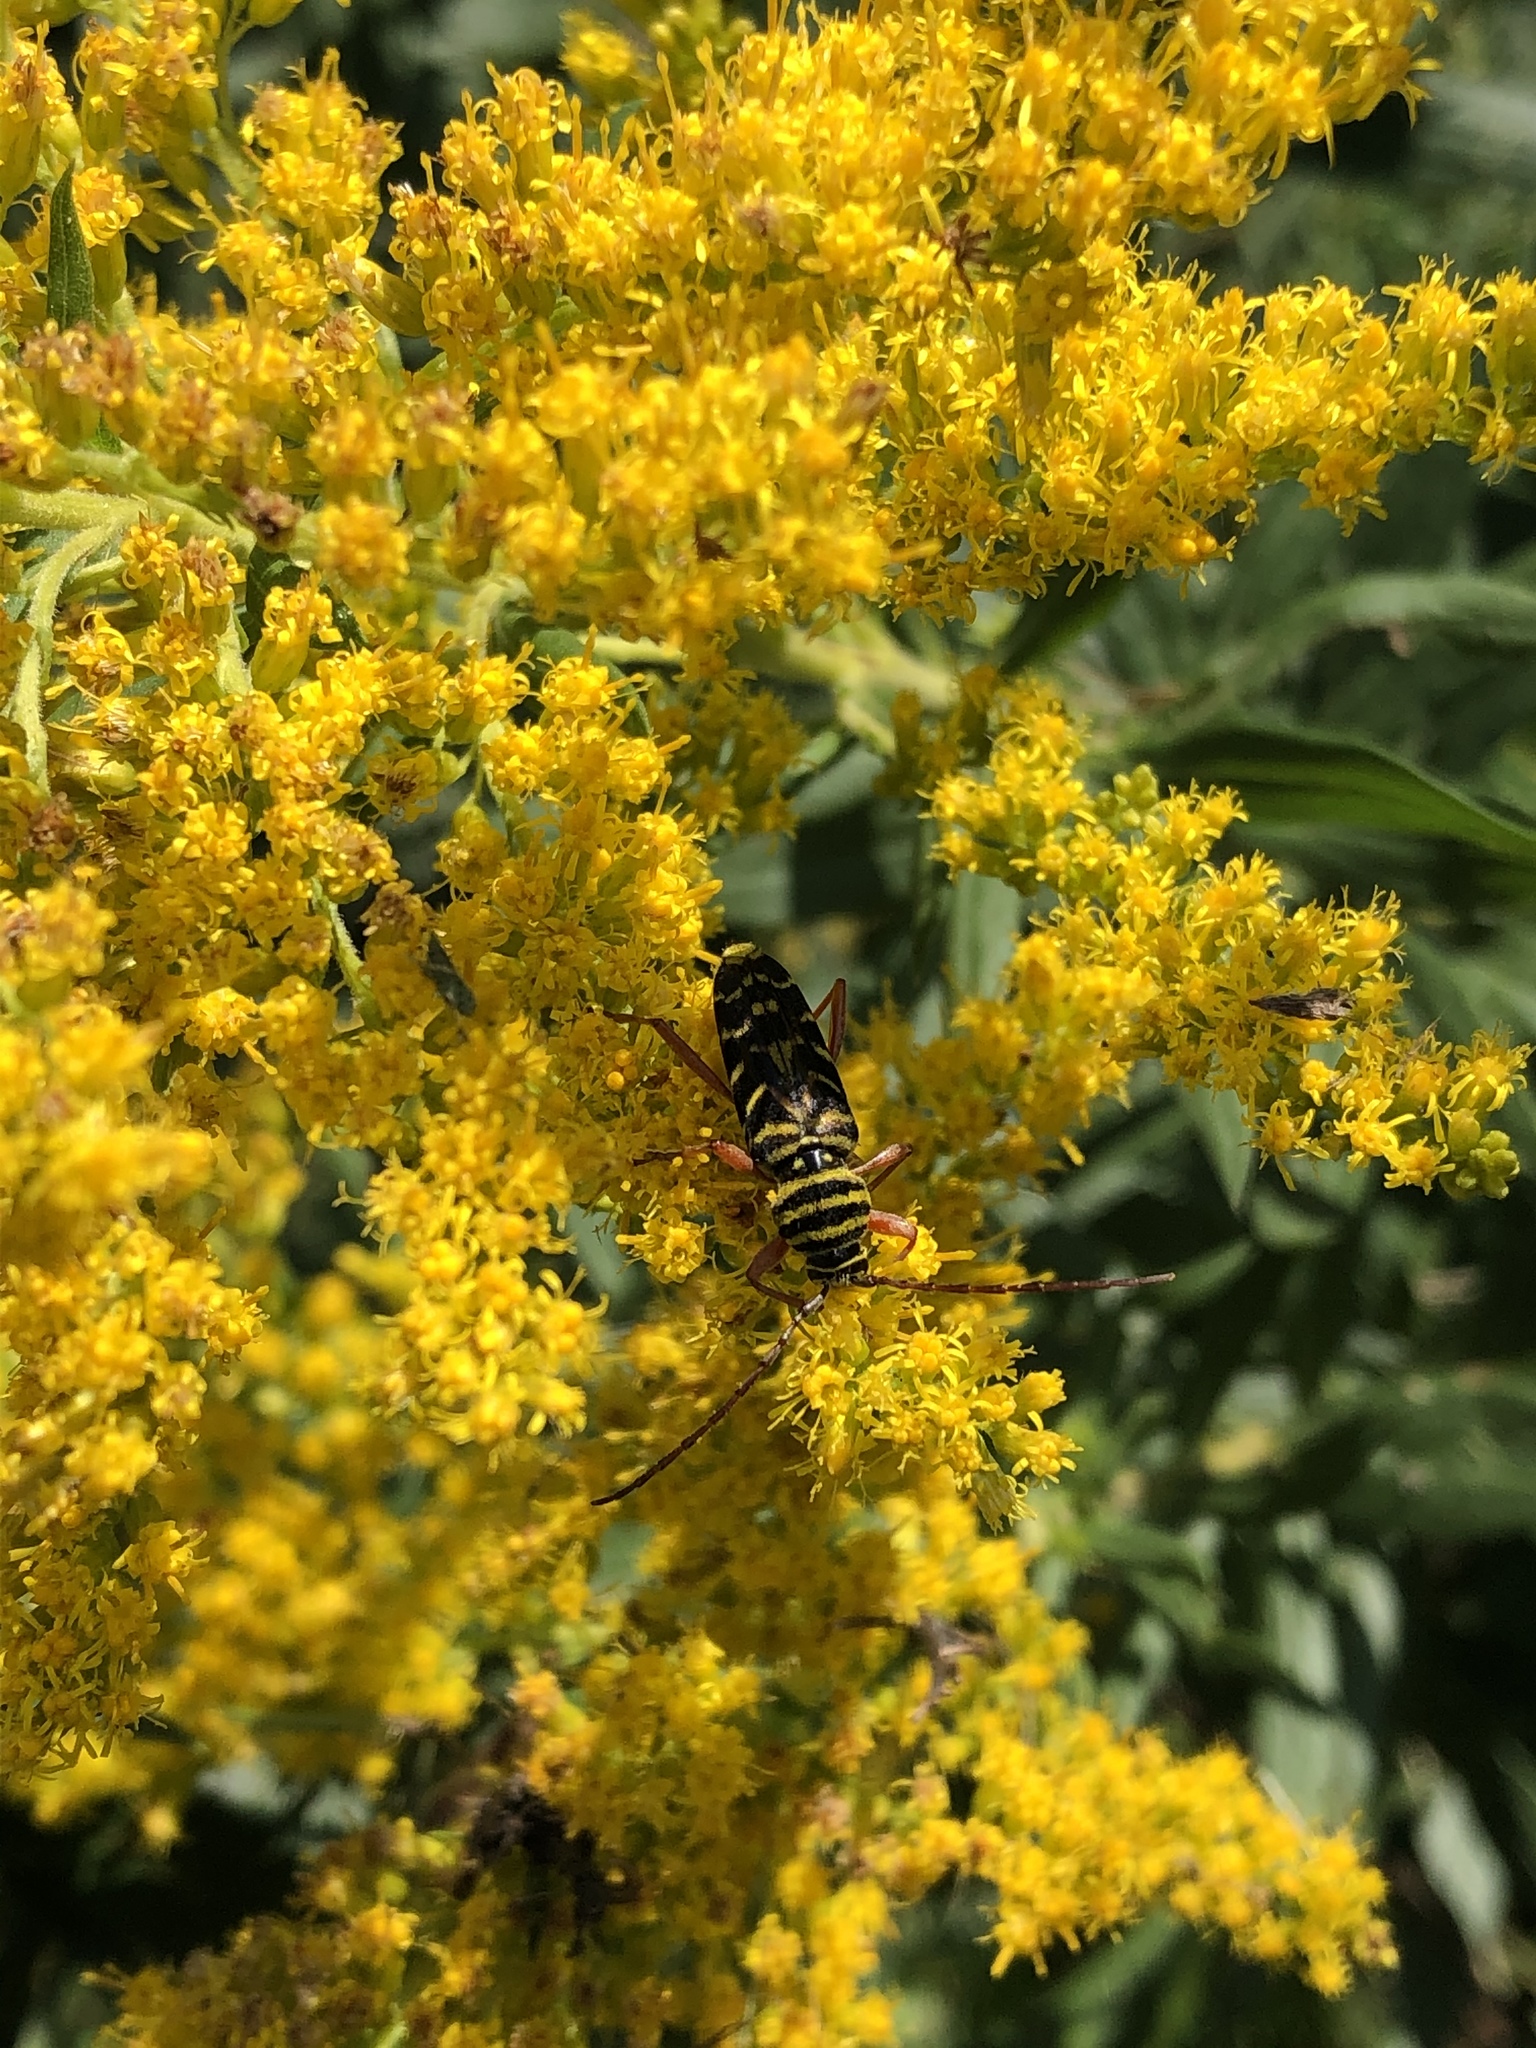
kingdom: Animalia
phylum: Arthropoda
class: Insecta
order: Coleoptera
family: Cerambycidae
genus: Megacyllene
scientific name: Megacyllene robiniae
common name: Locust borer
